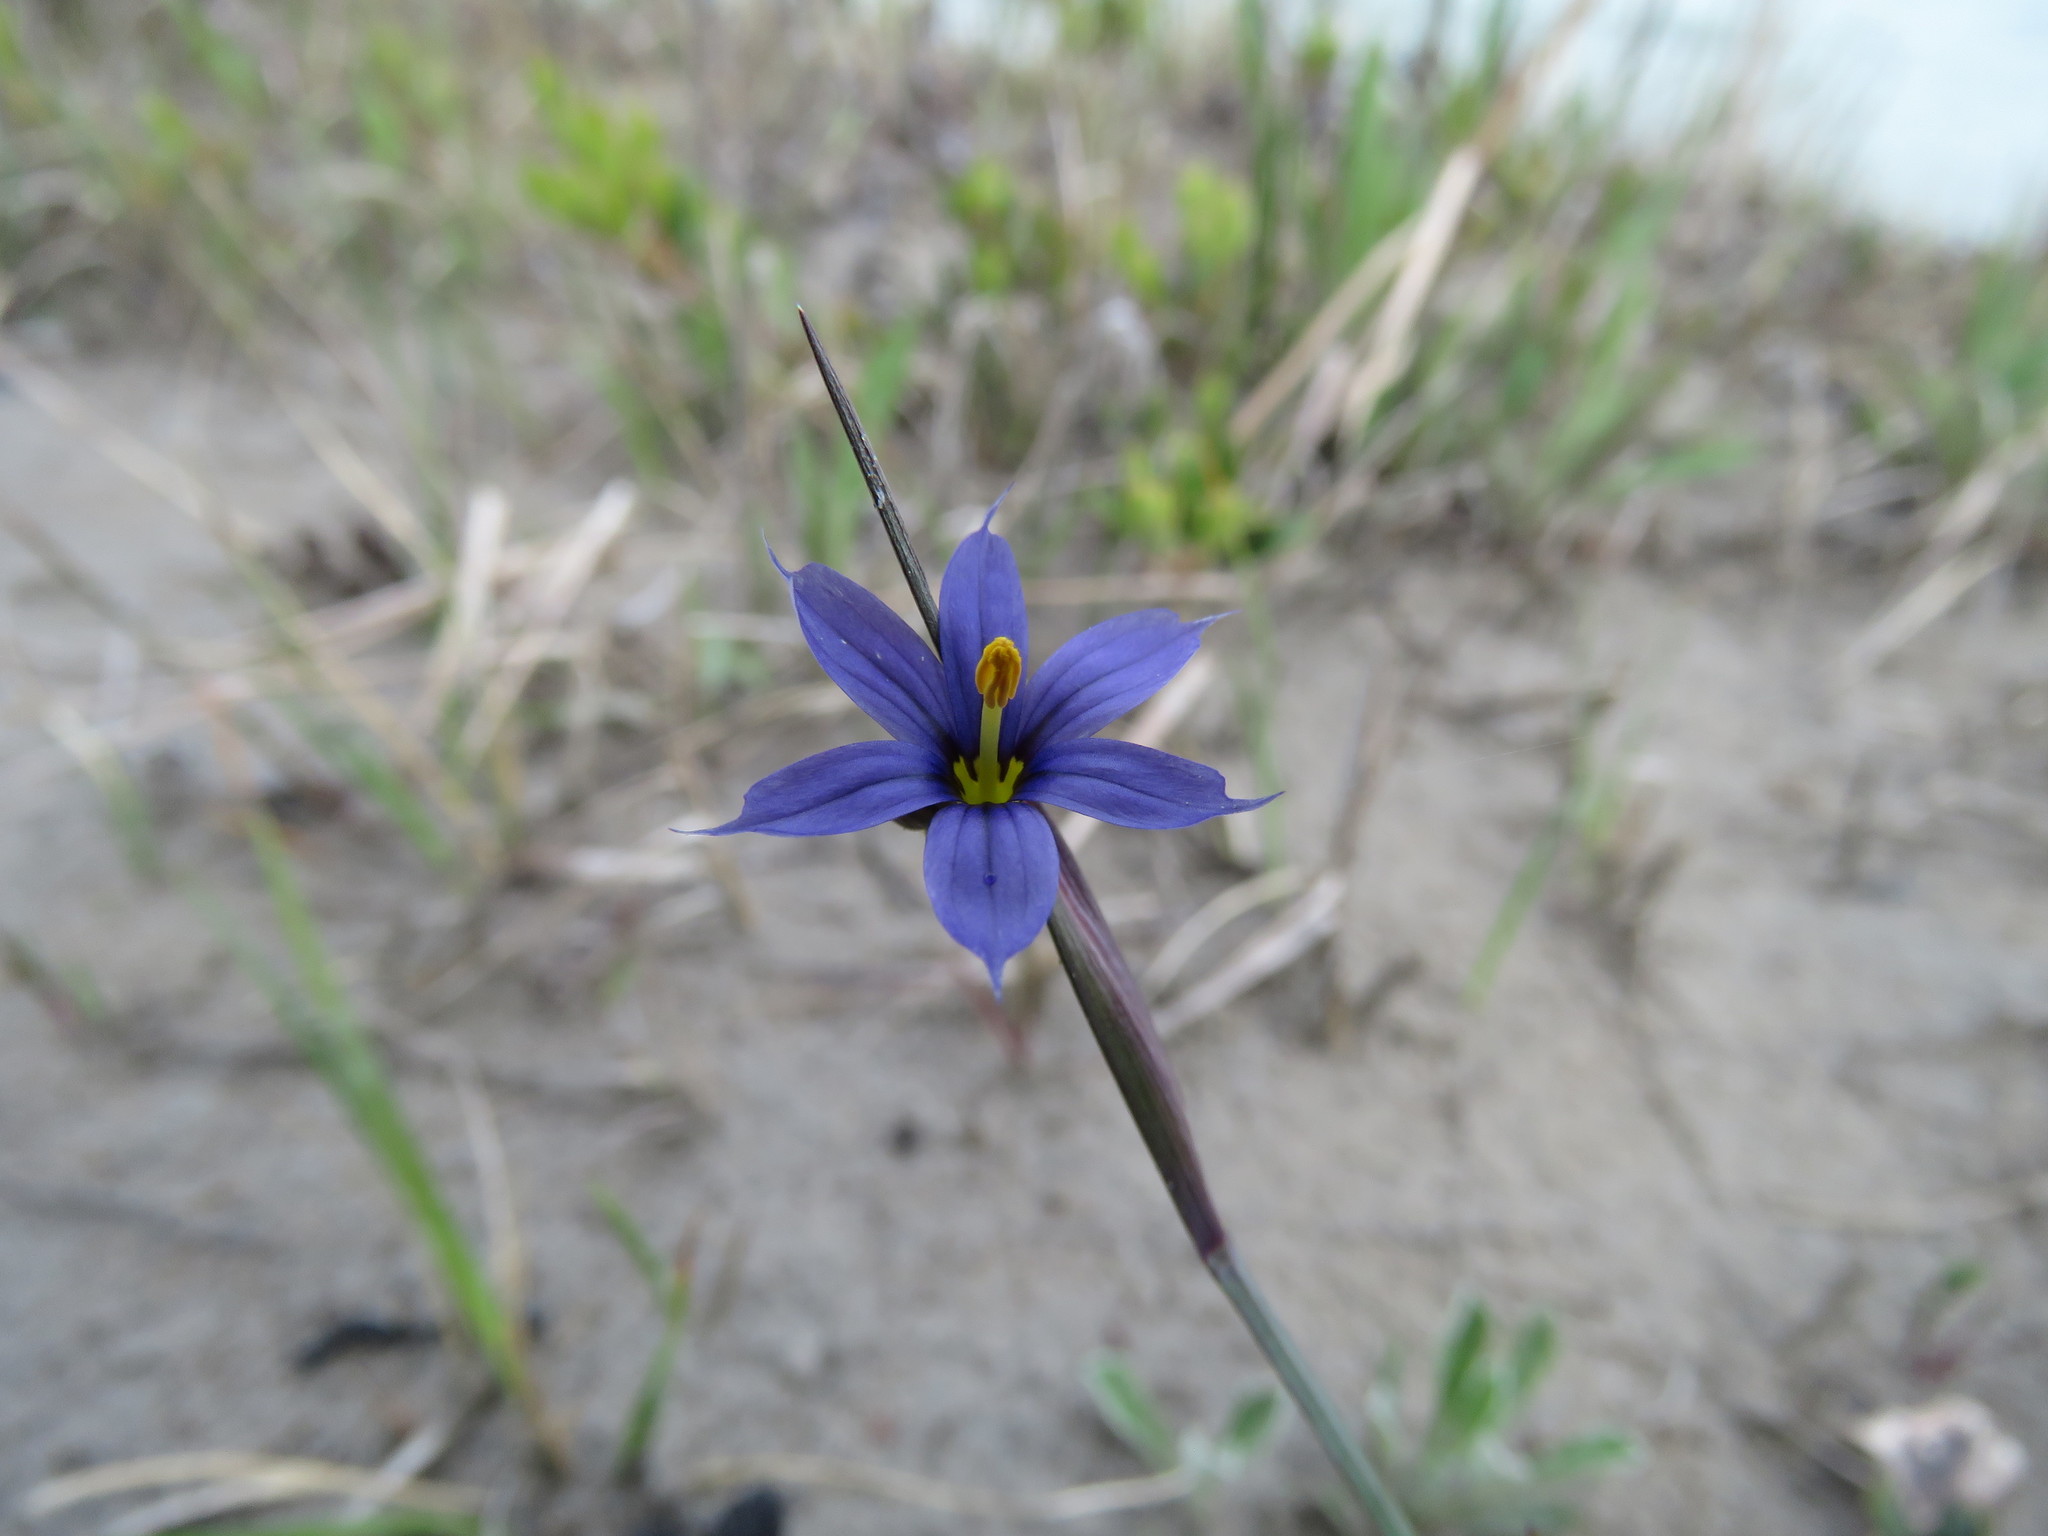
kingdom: Plantae
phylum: Tracheophyta
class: Liliopsida
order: Asparagales
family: Iridaceae
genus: Sisyrinchium
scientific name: Sisyrinchium montanum
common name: American blue-eyed-grass
